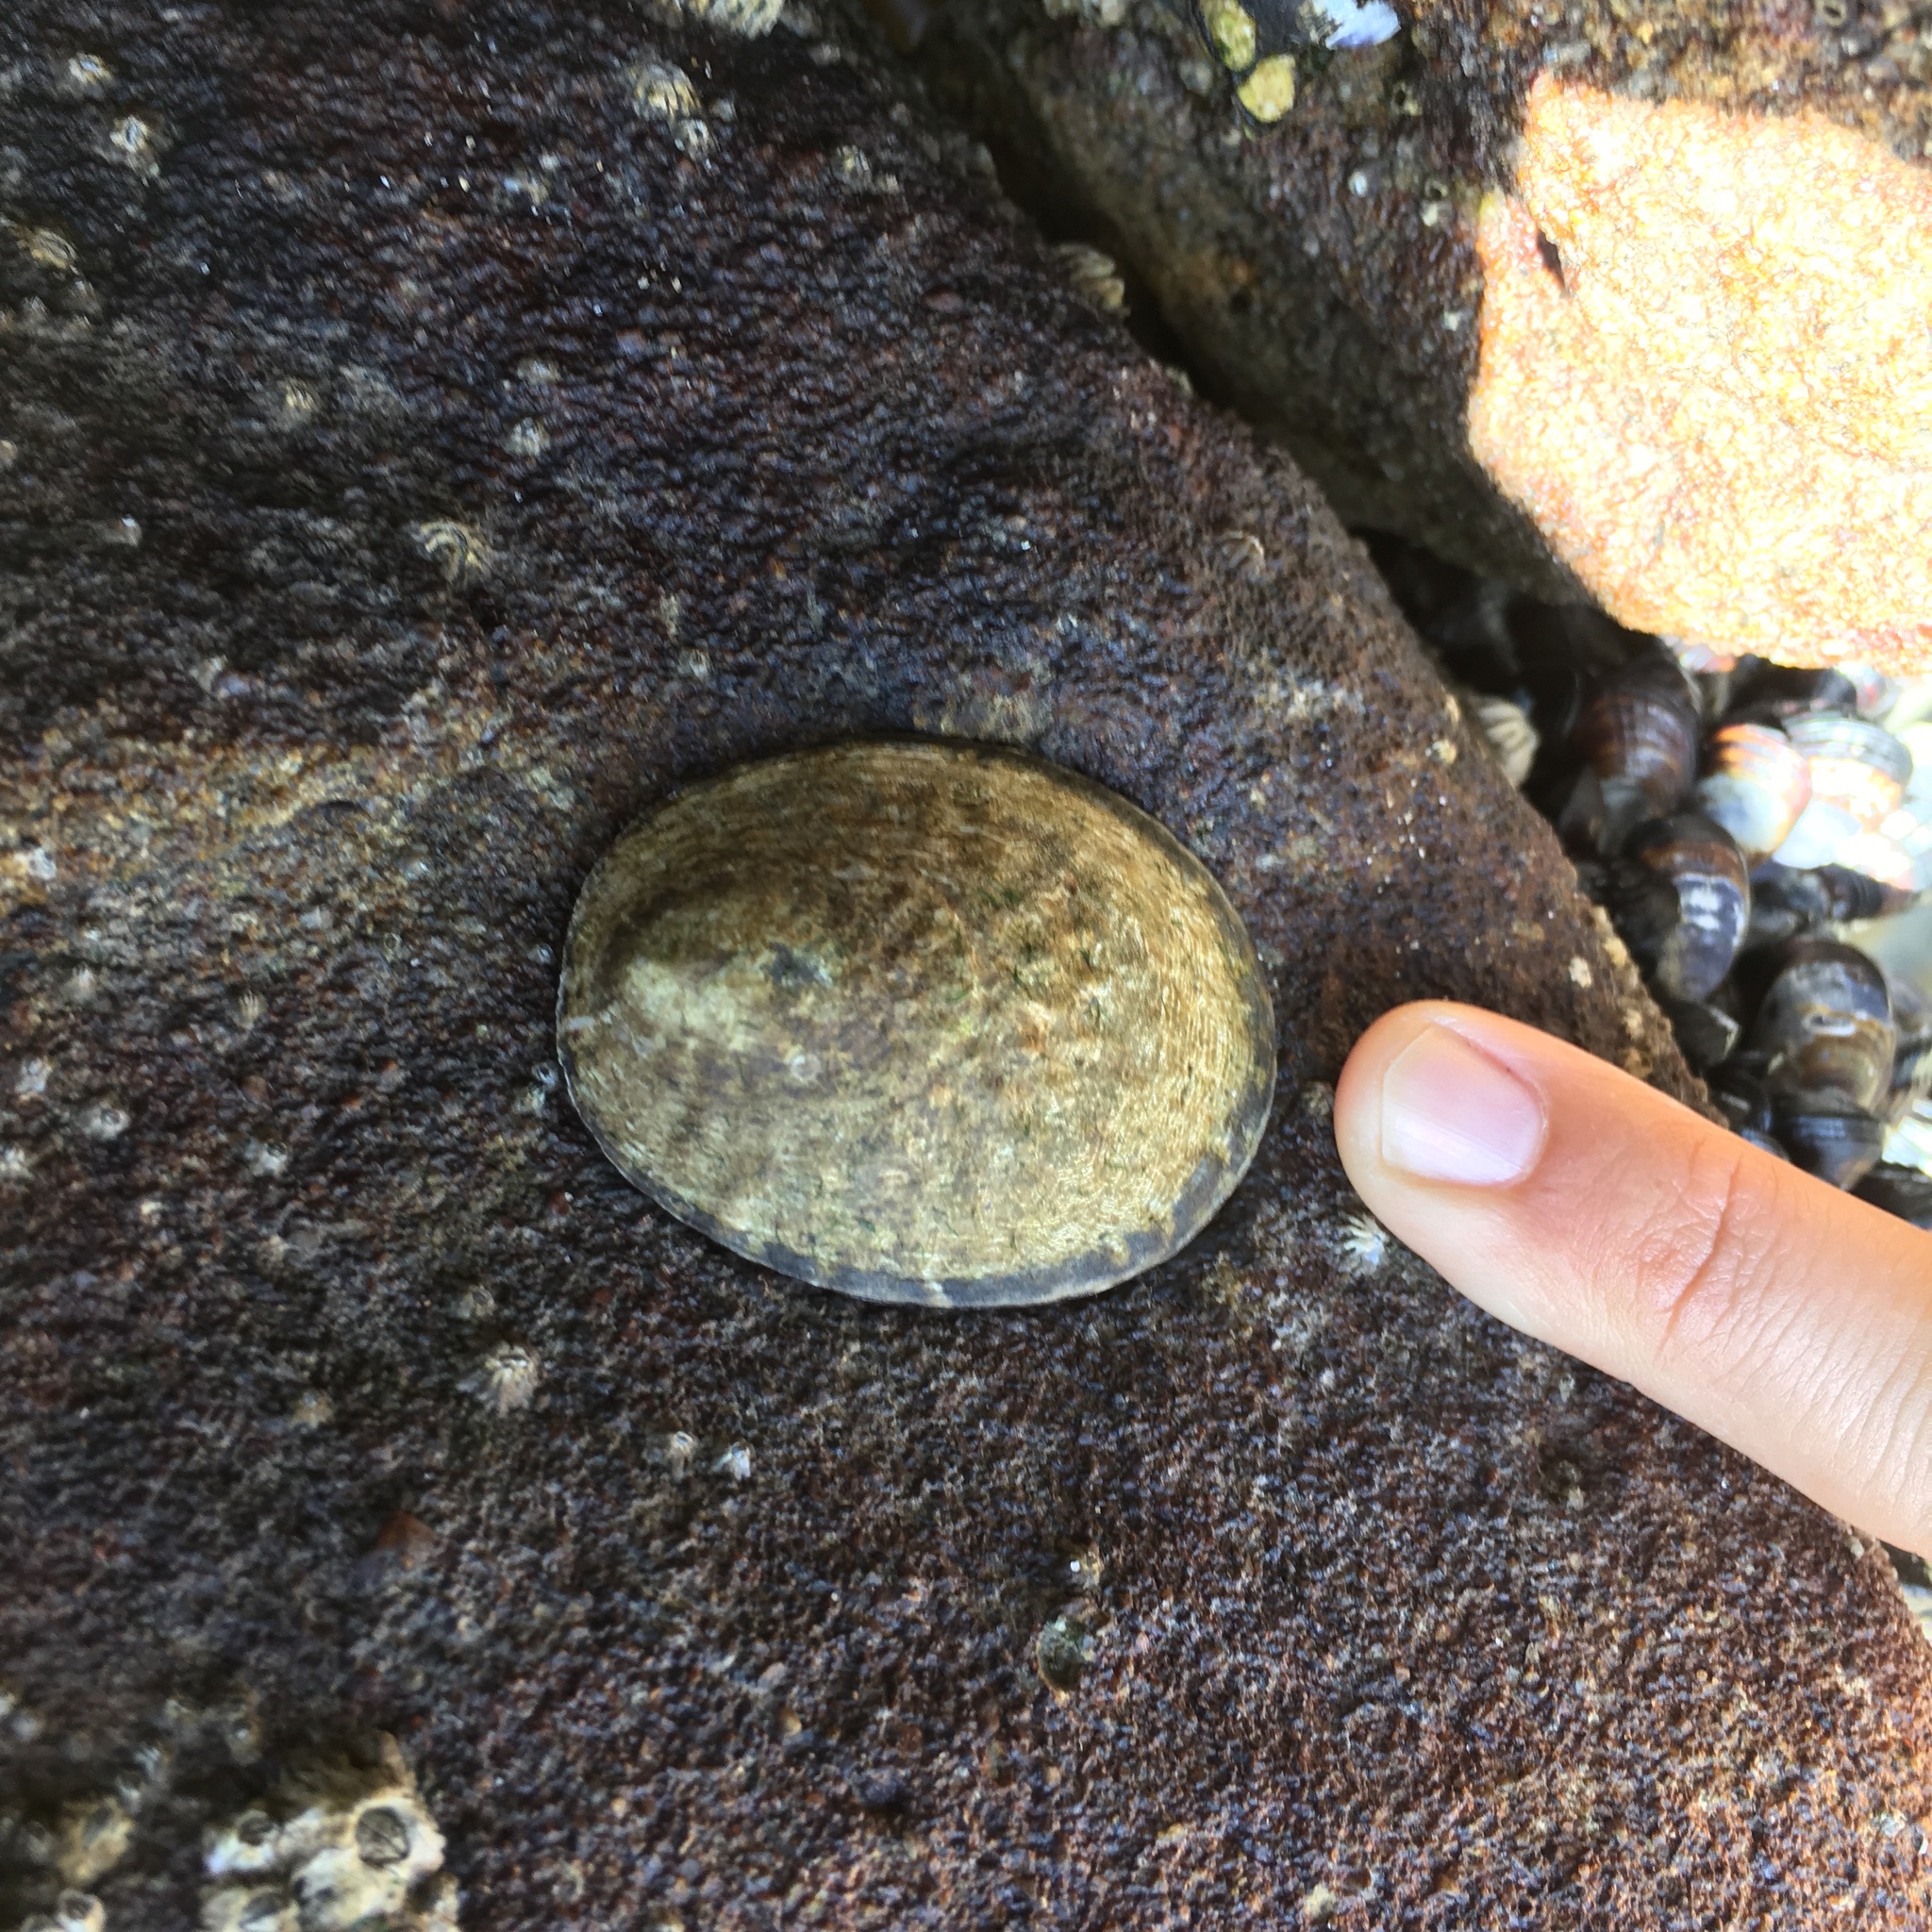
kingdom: Animalia
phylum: Mollusca
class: Gastropoda
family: Lottiidae
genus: Lottia
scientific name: Lottia gigantea
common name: Owl limpet
